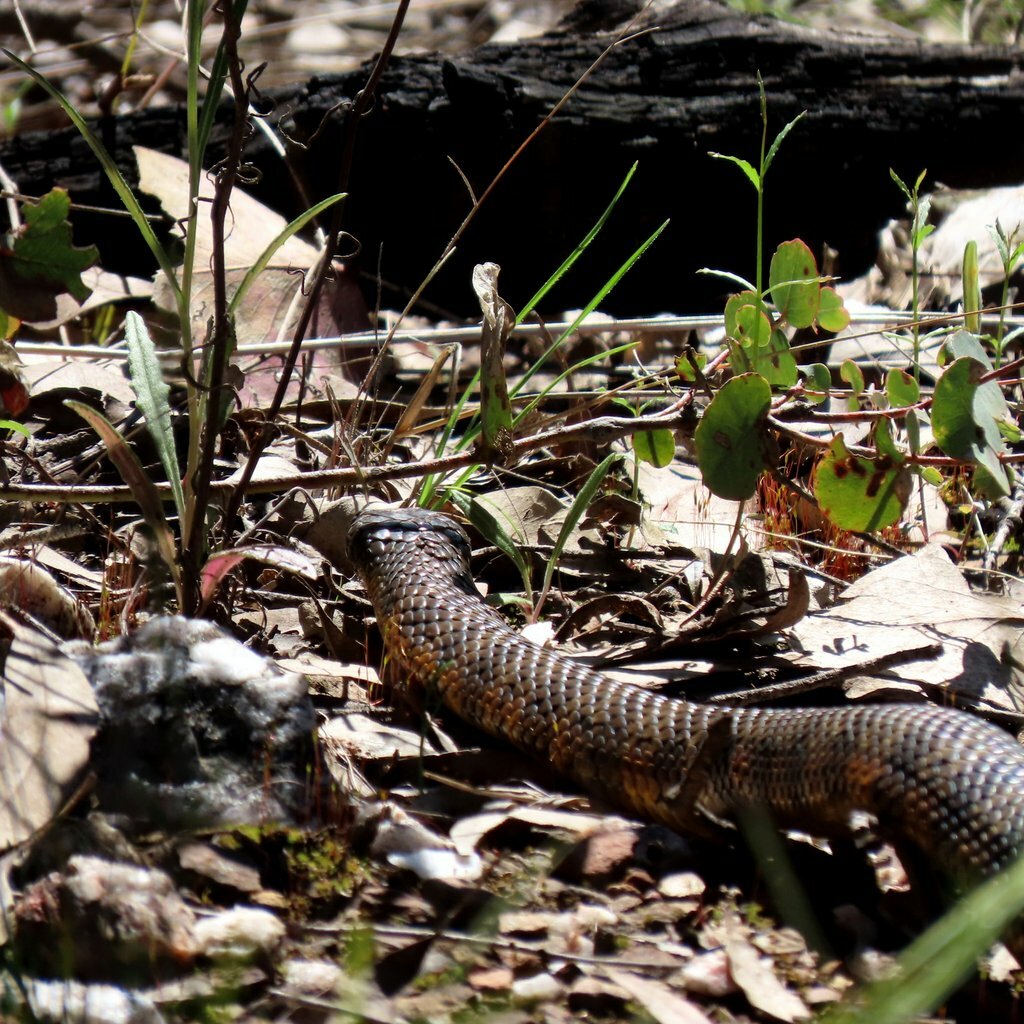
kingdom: Animalia
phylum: Chordata
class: Squamata
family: Elapidae
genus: Notechis
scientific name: Notechis scutatus
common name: Mainland tiger snake
